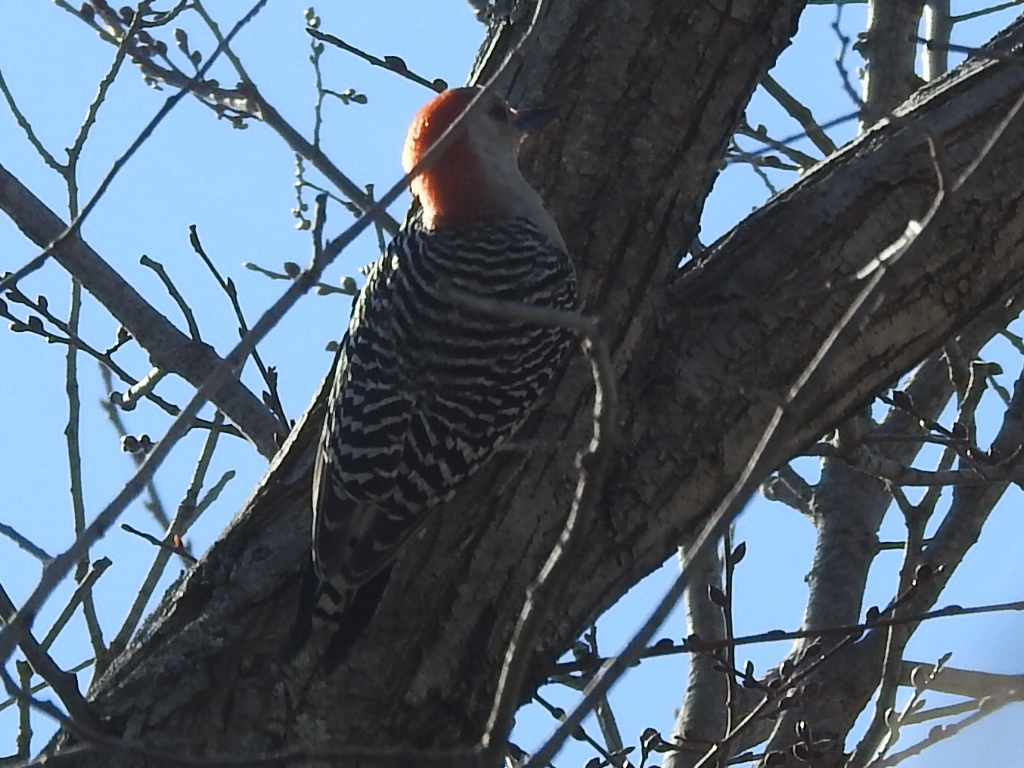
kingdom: Animalia
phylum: Chordata
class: Aves
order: Piciformes
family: Picidae
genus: Melanerpes
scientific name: Melanerpes carolinus
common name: Red-bellied woodpecker
